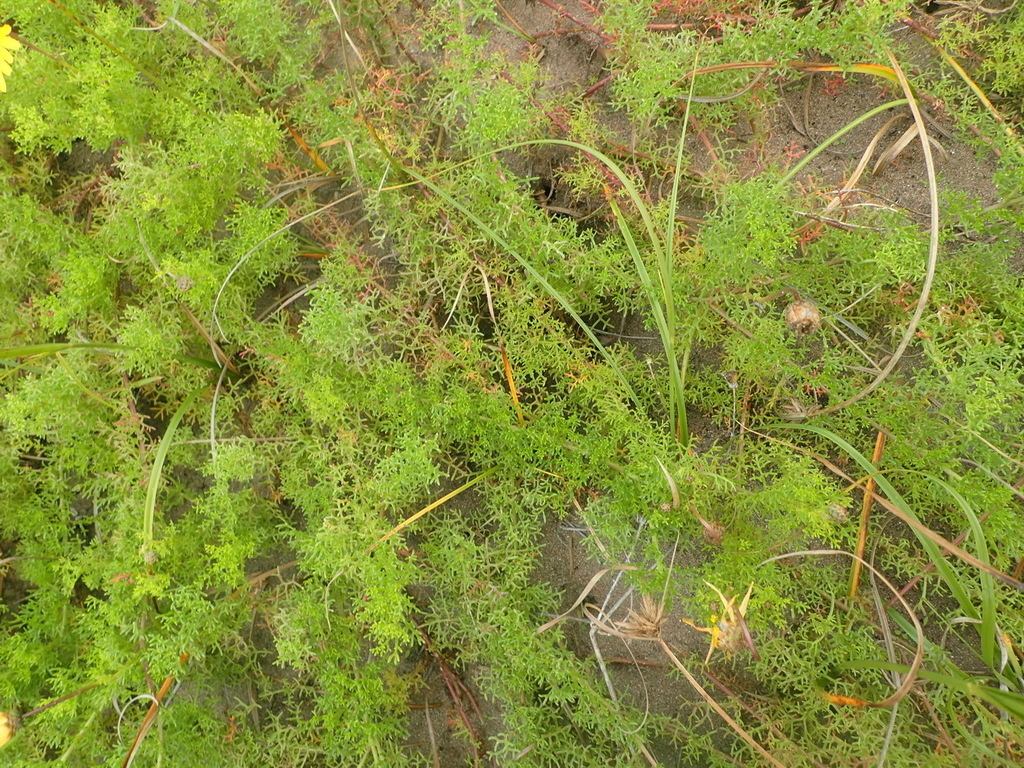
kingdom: Plantae
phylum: Tracheophyta
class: Magnoliopsida
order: Asterales
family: Asteraceae
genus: Ursinia
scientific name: Ursinia chrysanthemoides
